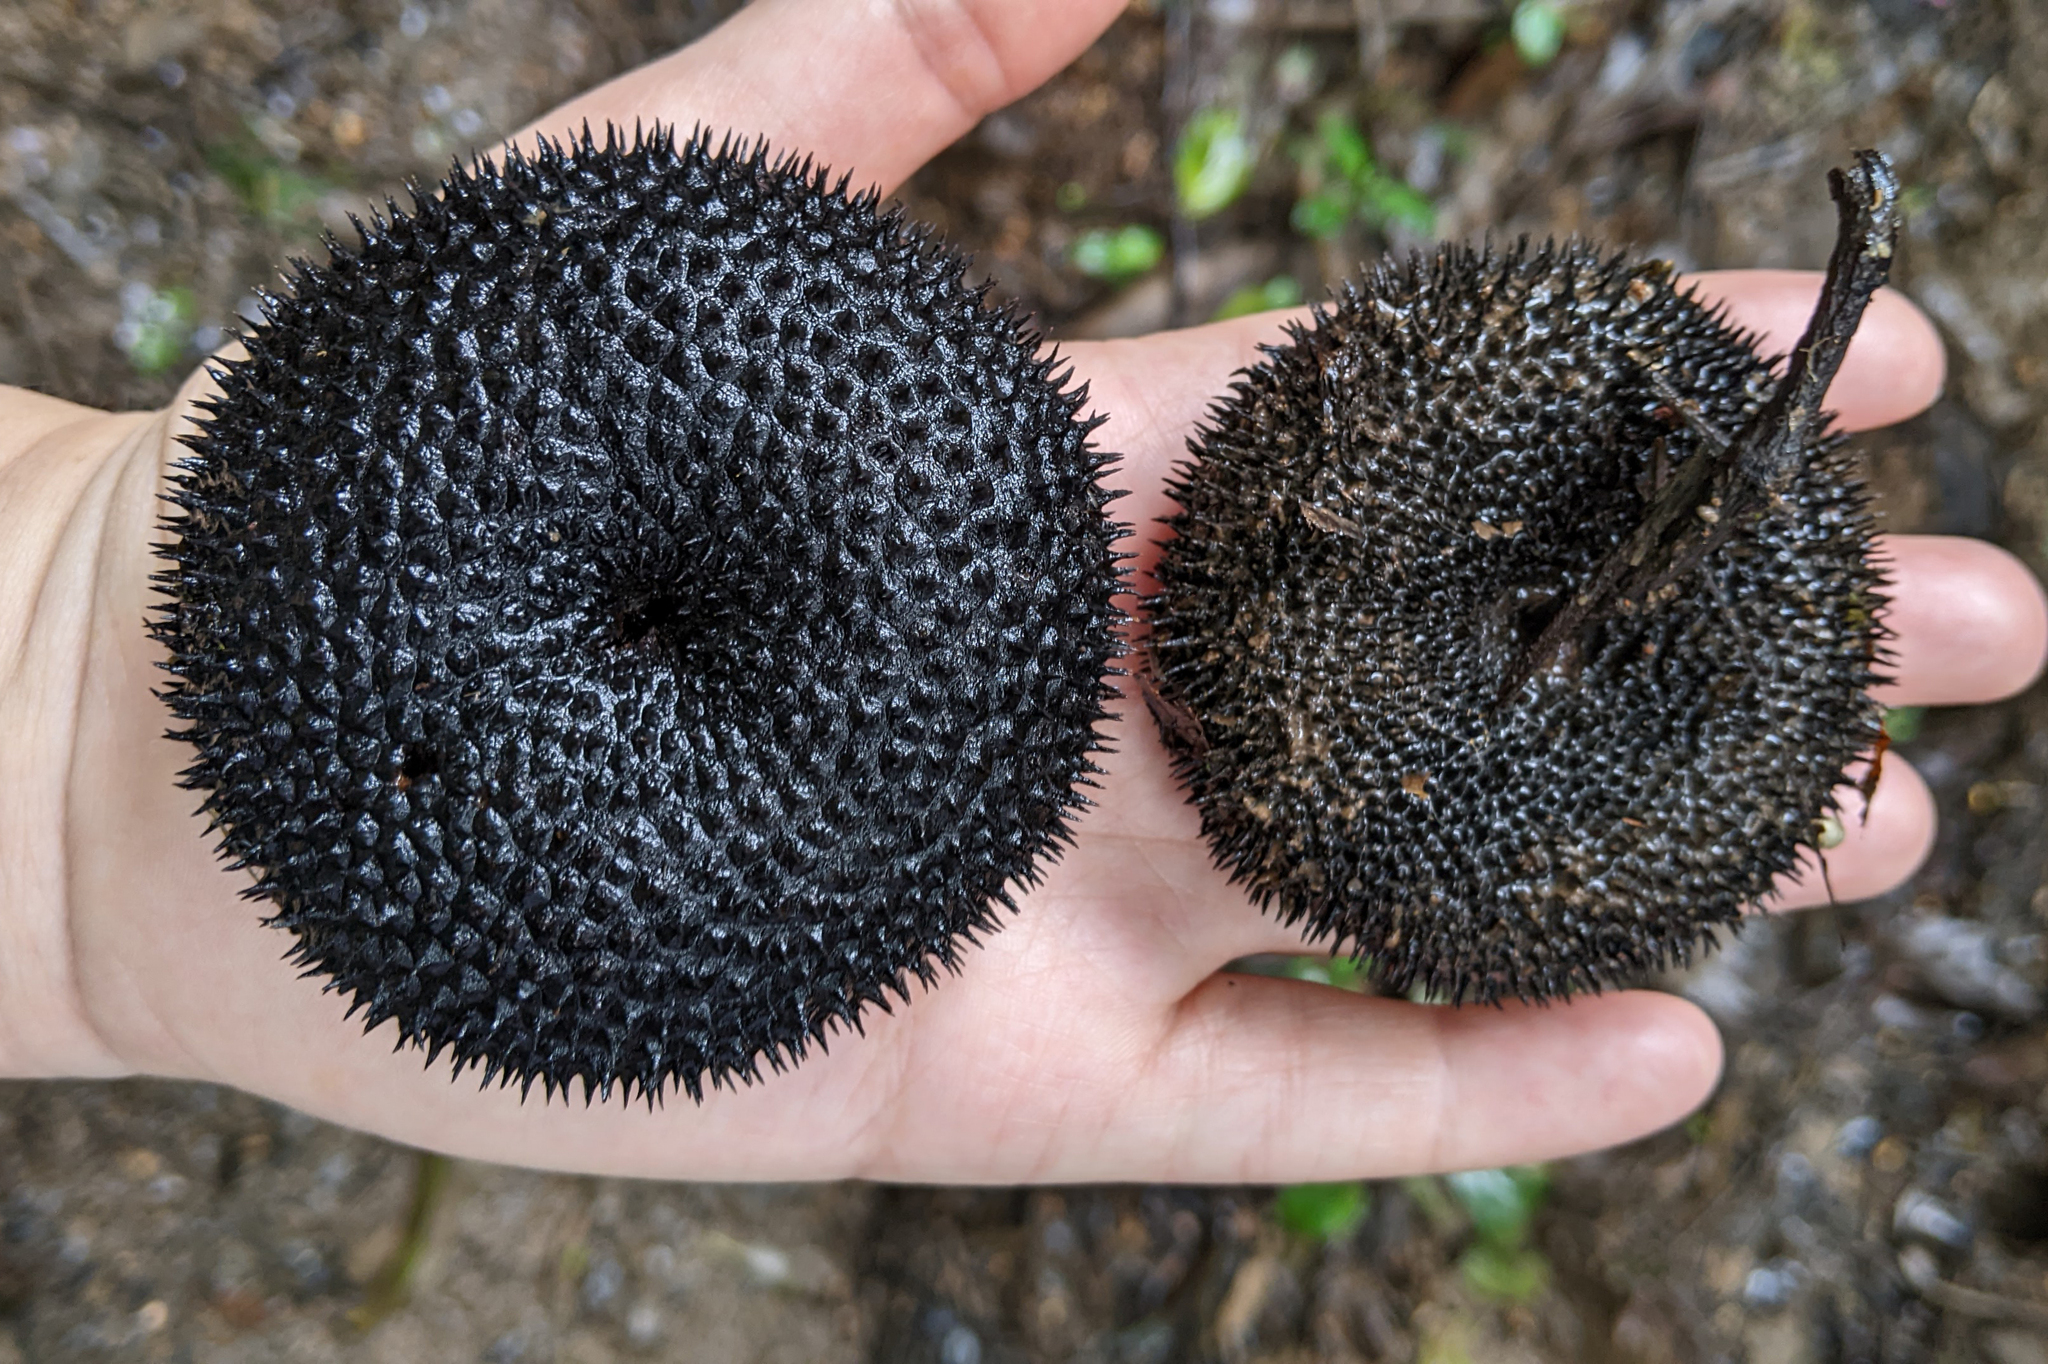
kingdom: Plantae
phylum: Tracheophyta
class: Magnoliopsida
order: Malvales
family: Malvaceae
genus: Apeiba
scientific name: Apeiba petoumo
